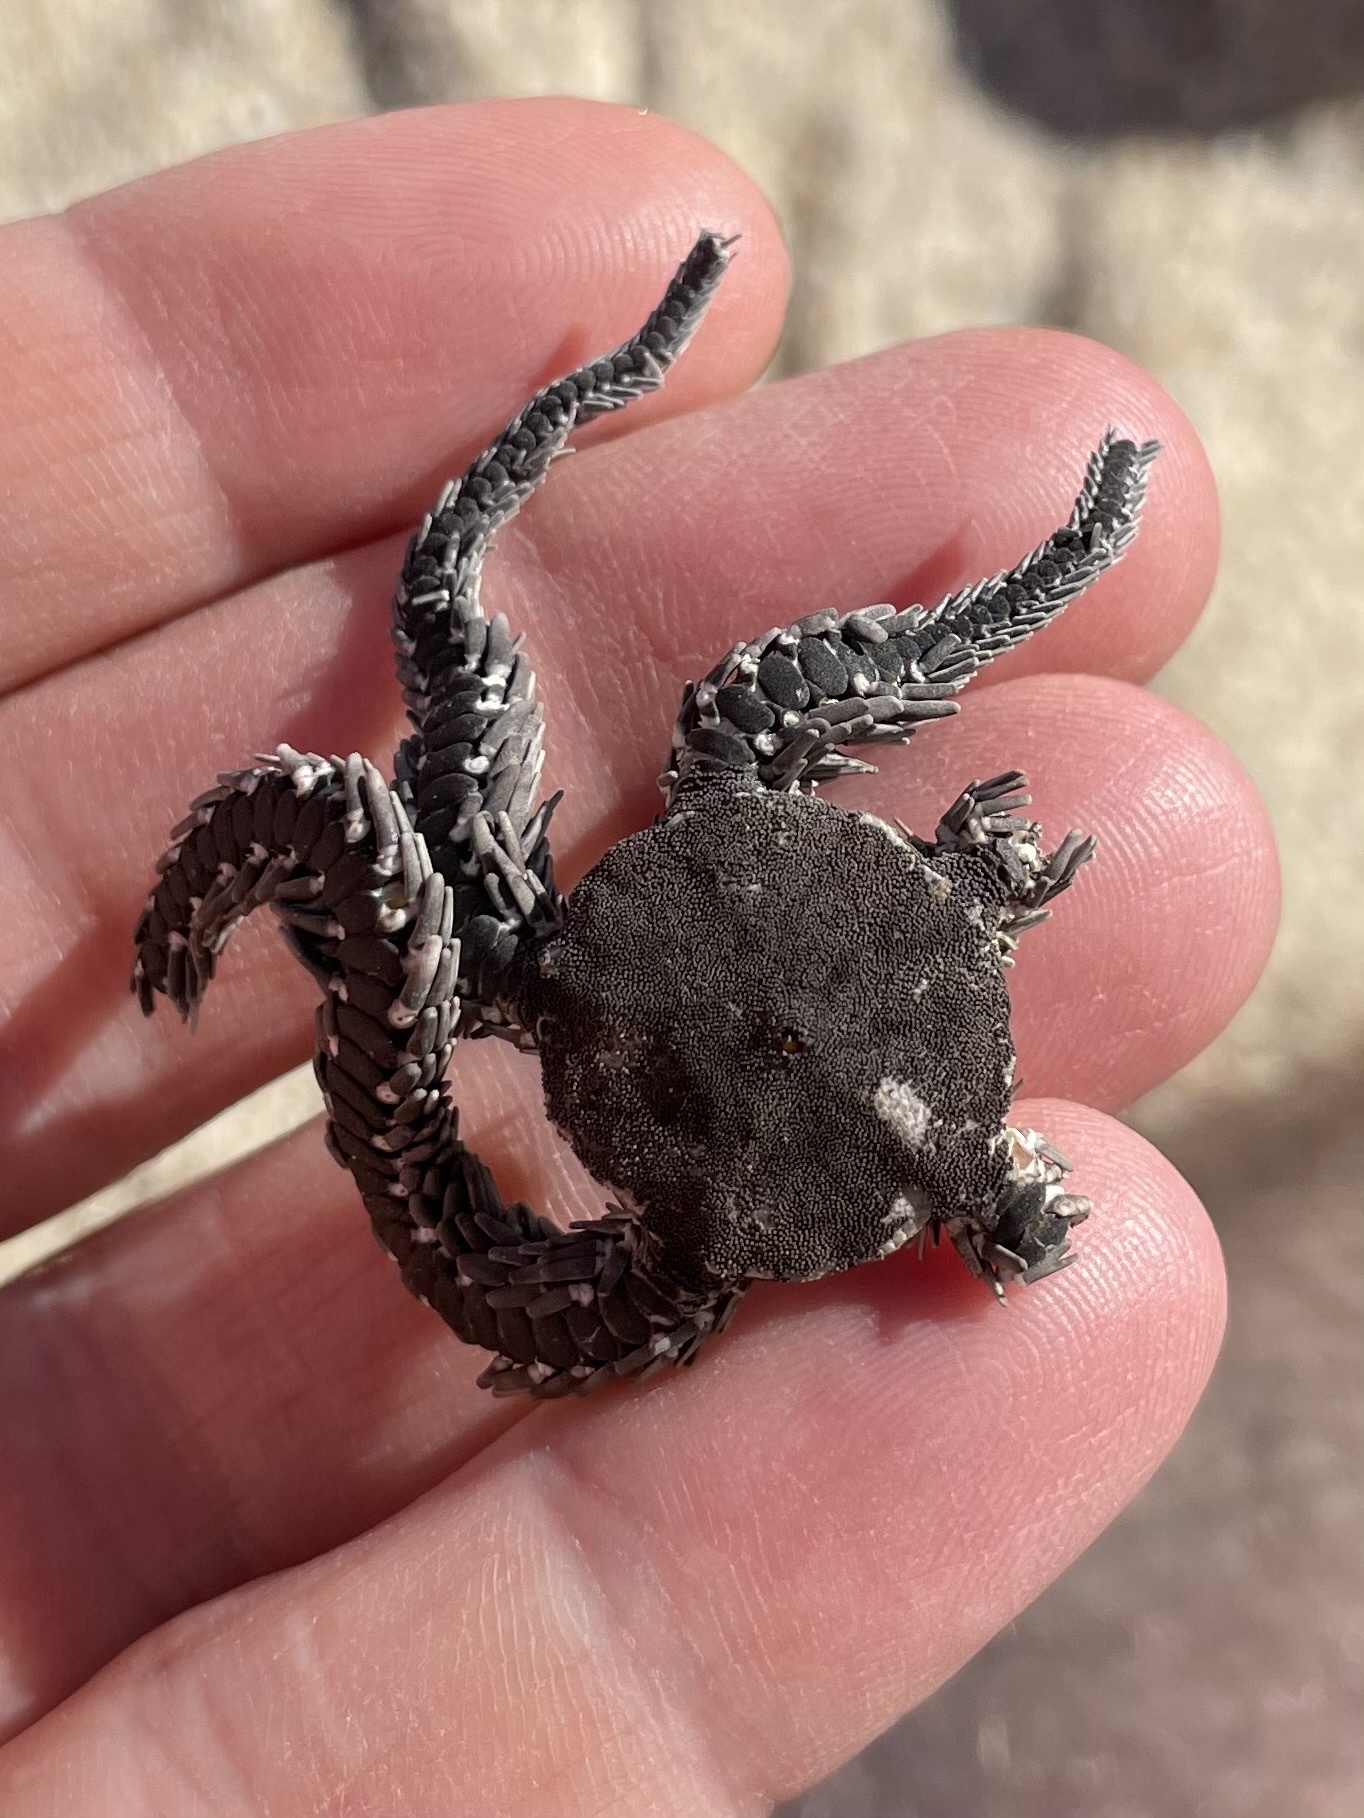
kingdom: Animalia
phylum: Echinodermata
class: Ophiuroidea
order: Ophiacanthida
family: Ophiocomidae
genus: Ophiocoma
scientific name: Ophiocoma aethiops
